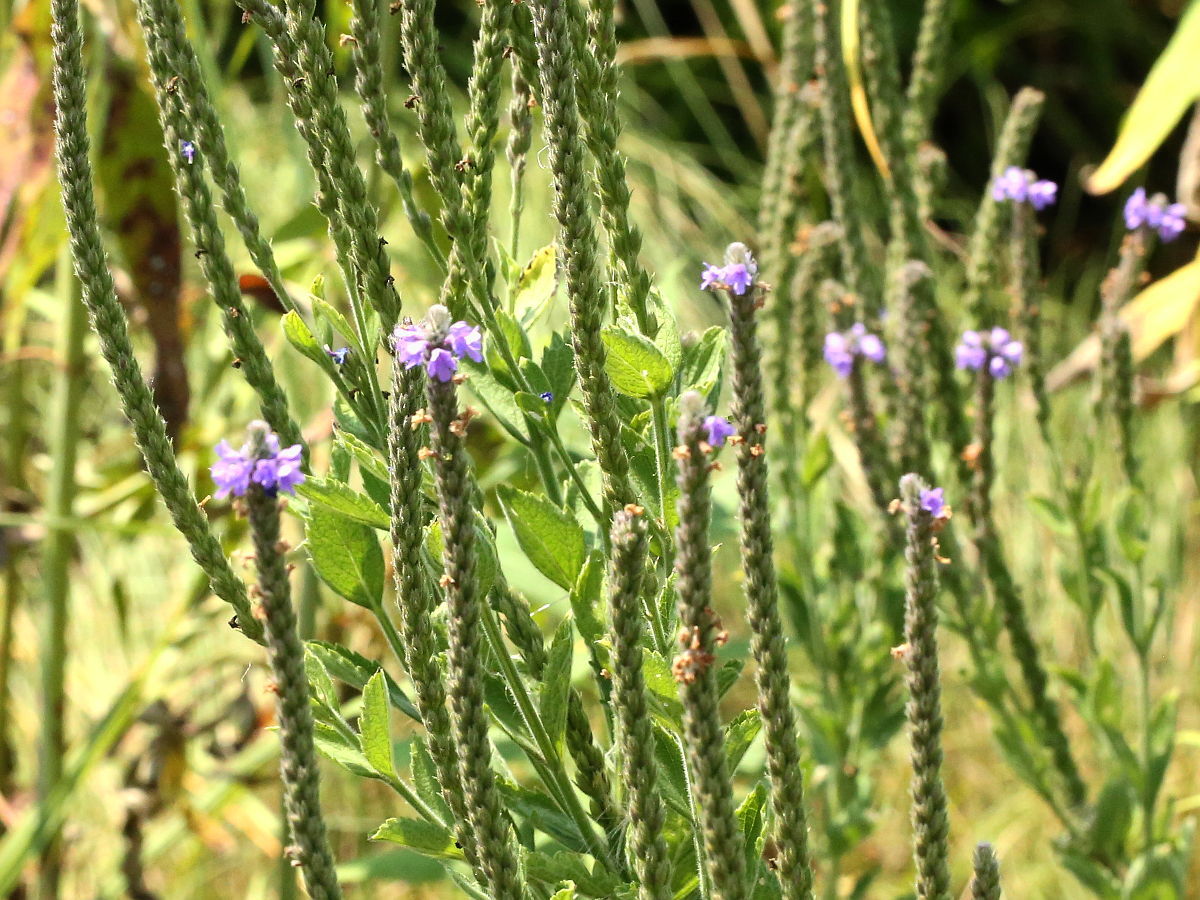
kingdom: Plantae
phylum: Tracheophyta
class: Magnoliopsida
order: Lamiales
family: Verbenaceae
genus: Verbena
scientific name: Verbena stricta
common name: Hoary vervain
